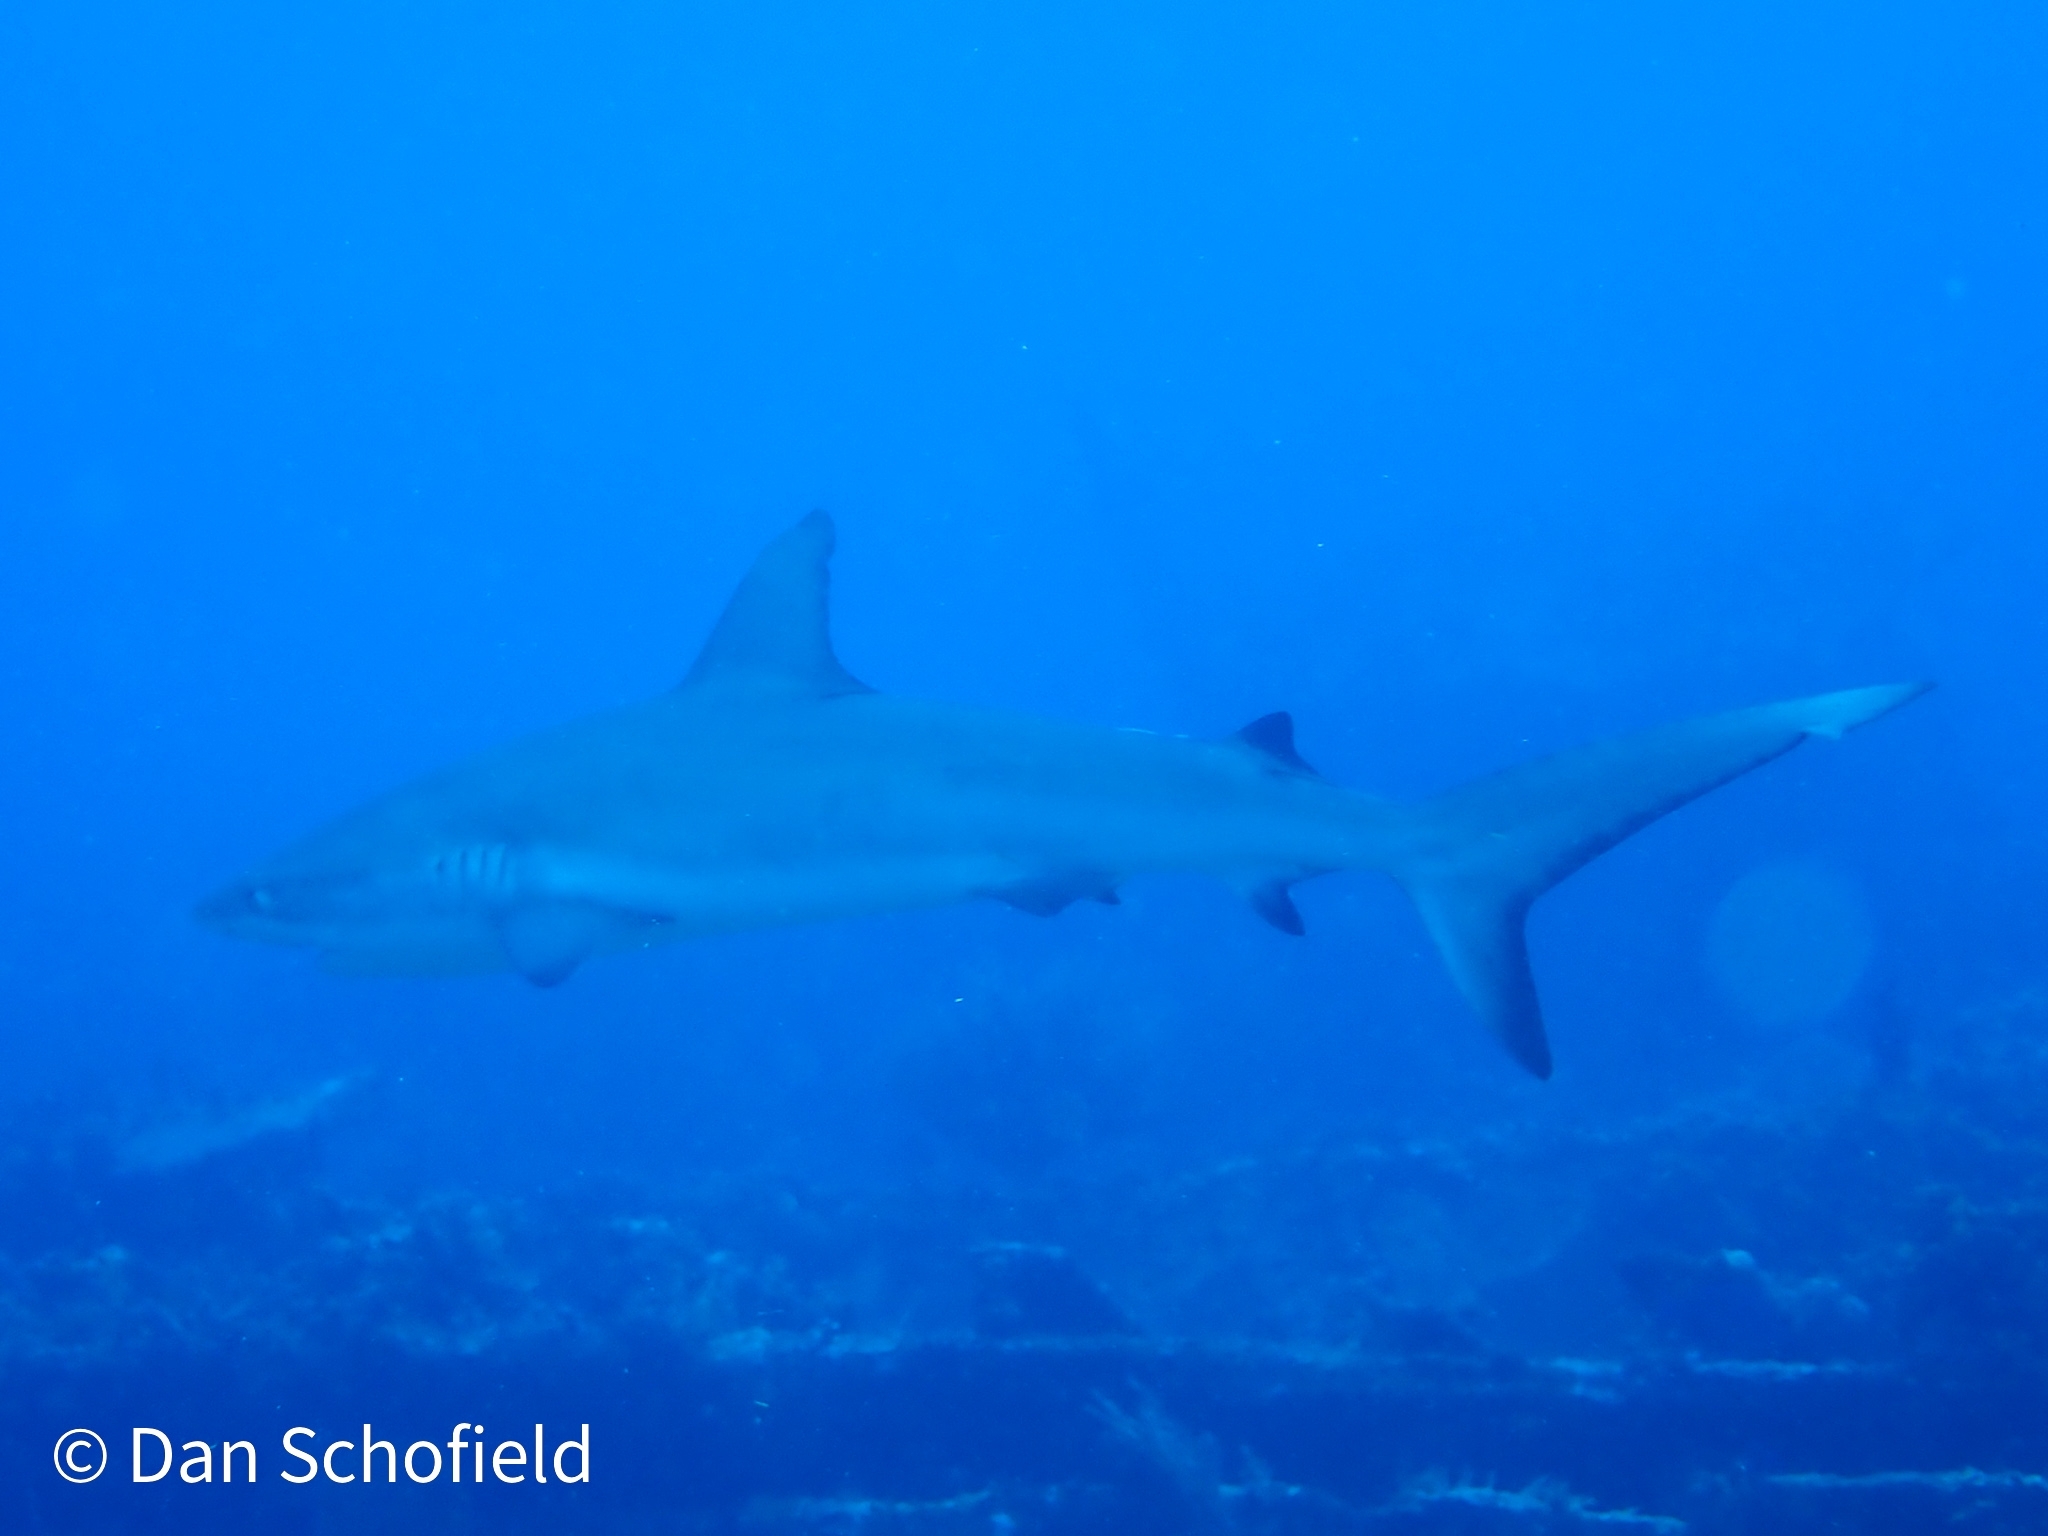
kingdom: Animalia
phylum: Chordata
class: Elasmobranchii
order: Carcharhiniformes
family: Carcharhinidae
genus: Carcharhinus
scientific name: Carcharhinus perezii
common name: Reef shark
